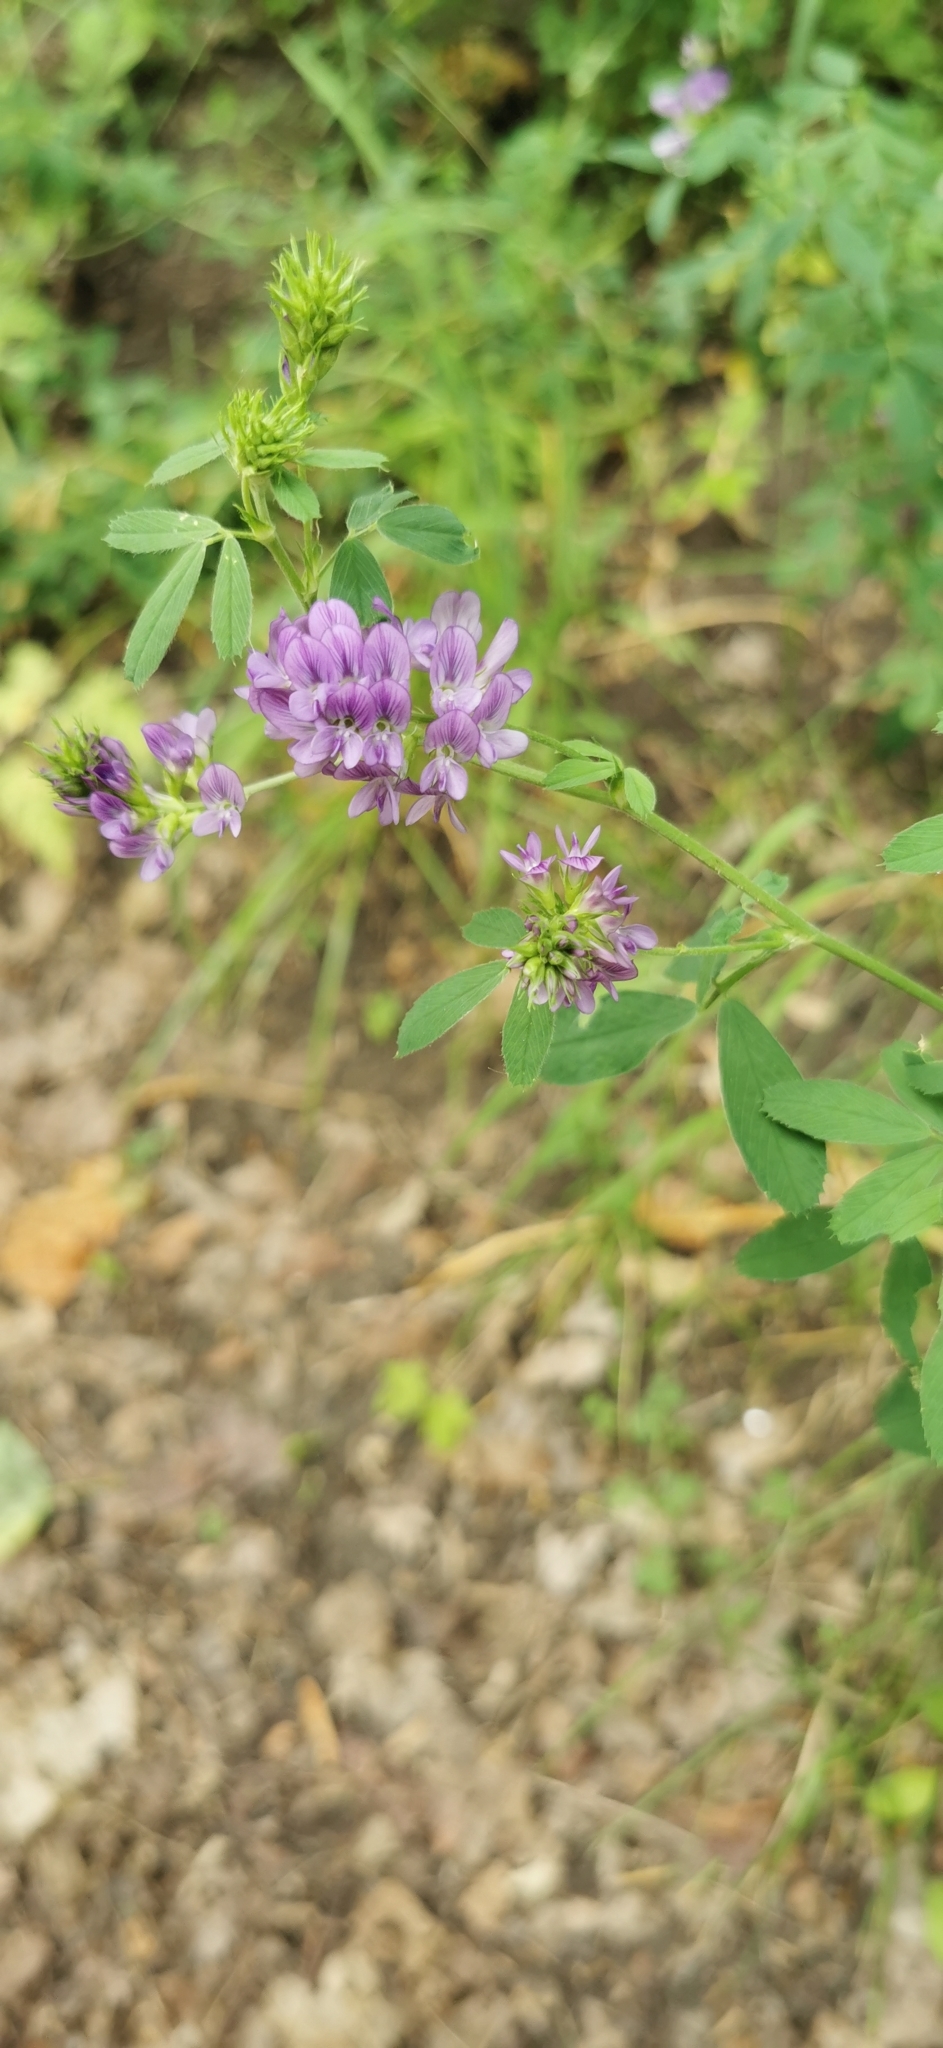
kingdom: Plantae
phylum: Tracheophyta
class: Magnoliopsida
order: Fabales
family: Fabaceae
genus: Medicago
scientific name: Medicago sativa
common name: Alfalfa
